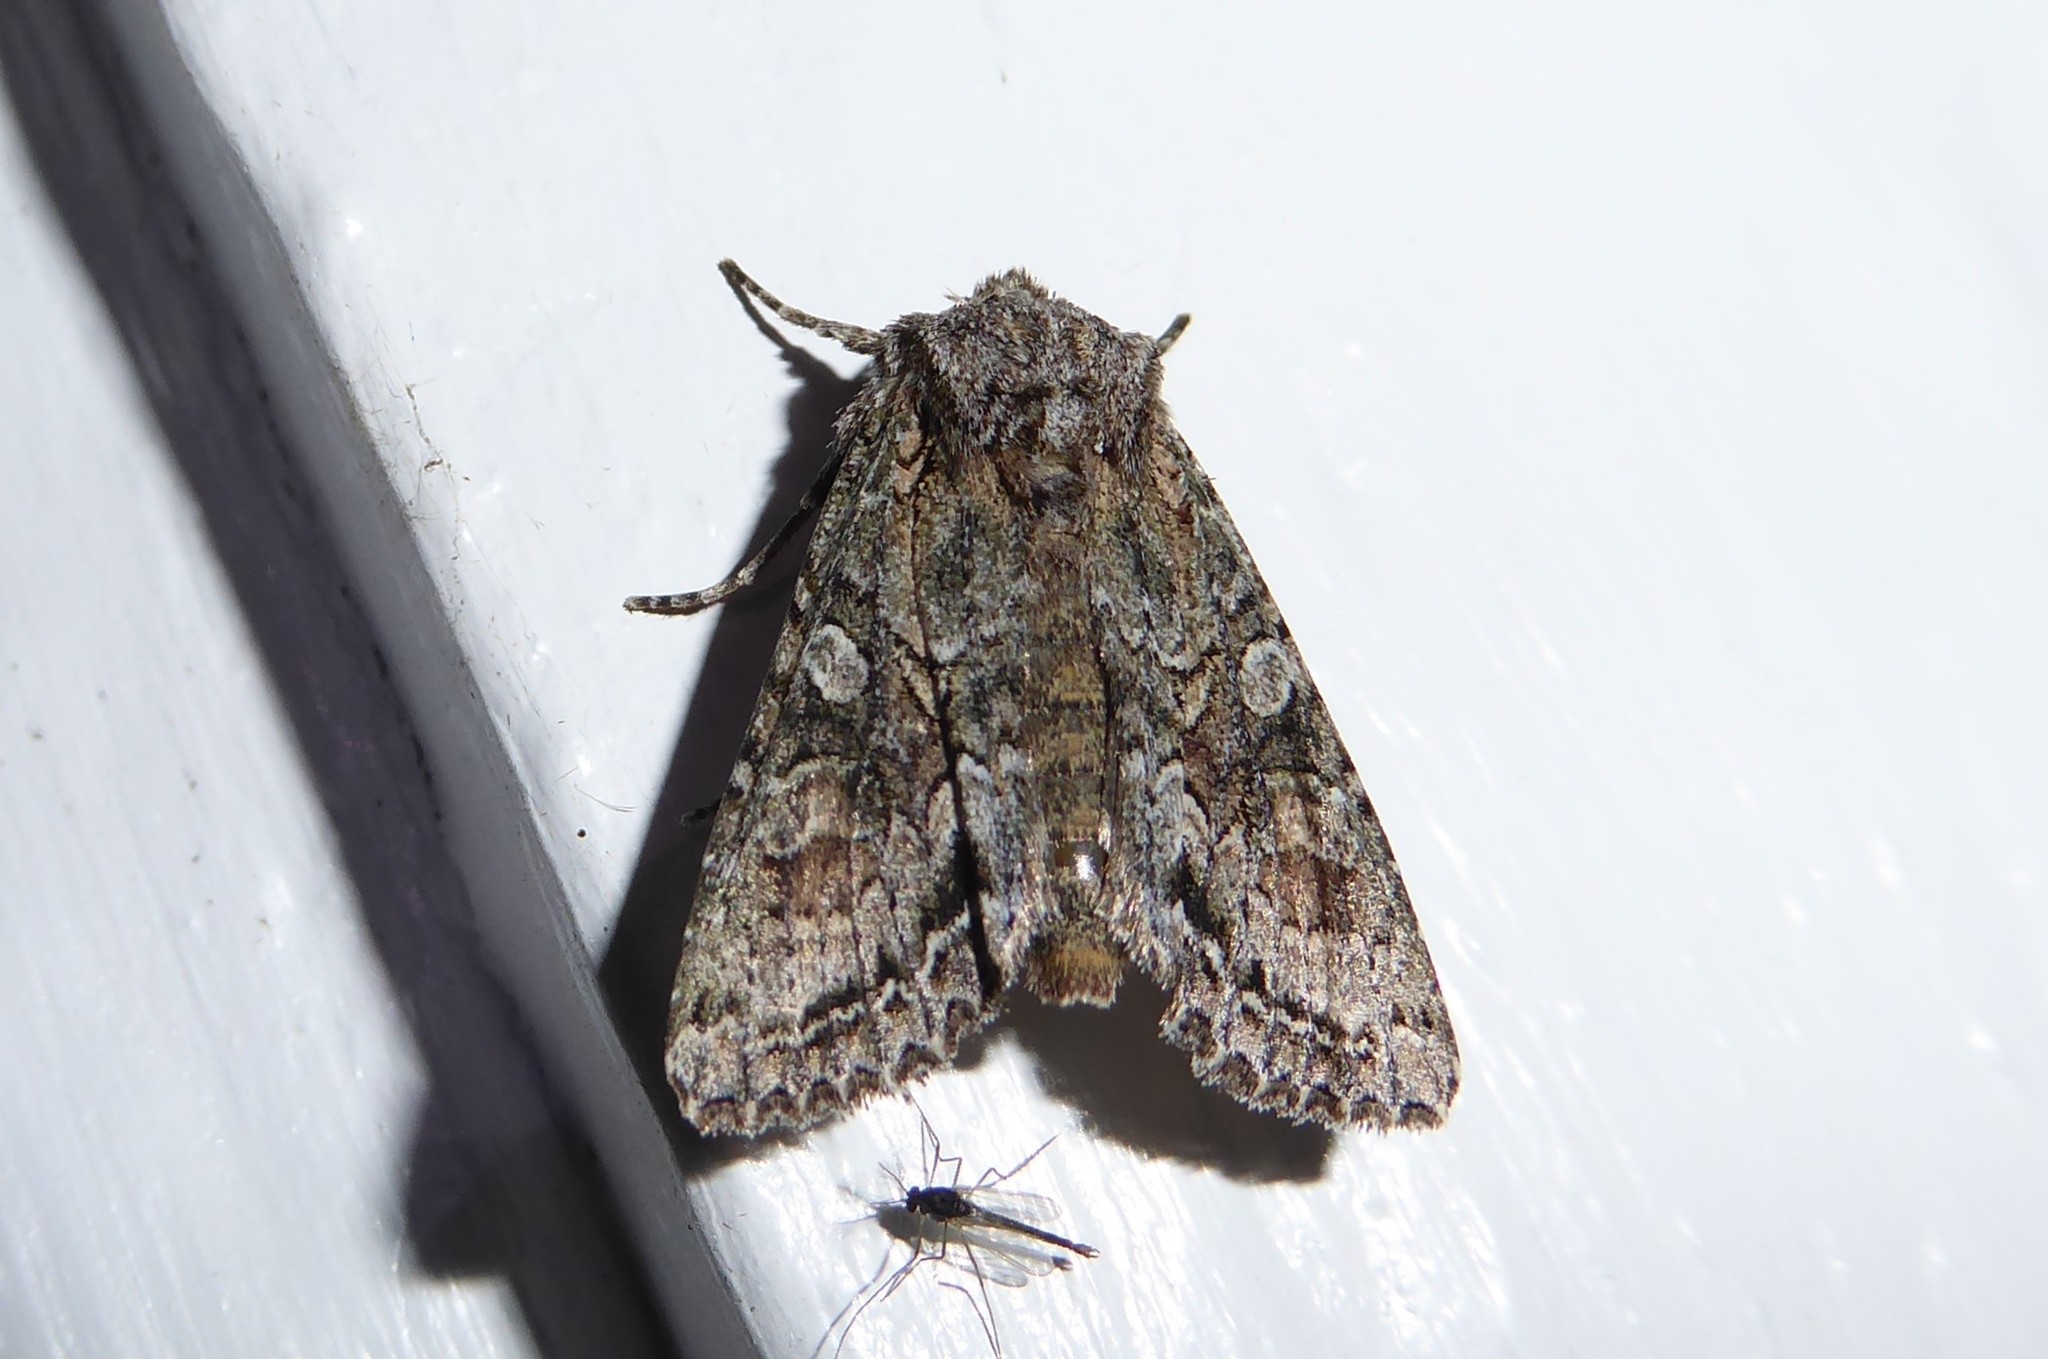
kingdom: Animalia
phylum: Arthropoda
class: Insecta
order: Lepidoptera
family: Noctuidae
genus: Ichneutica
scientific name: Ichneutica mutans
